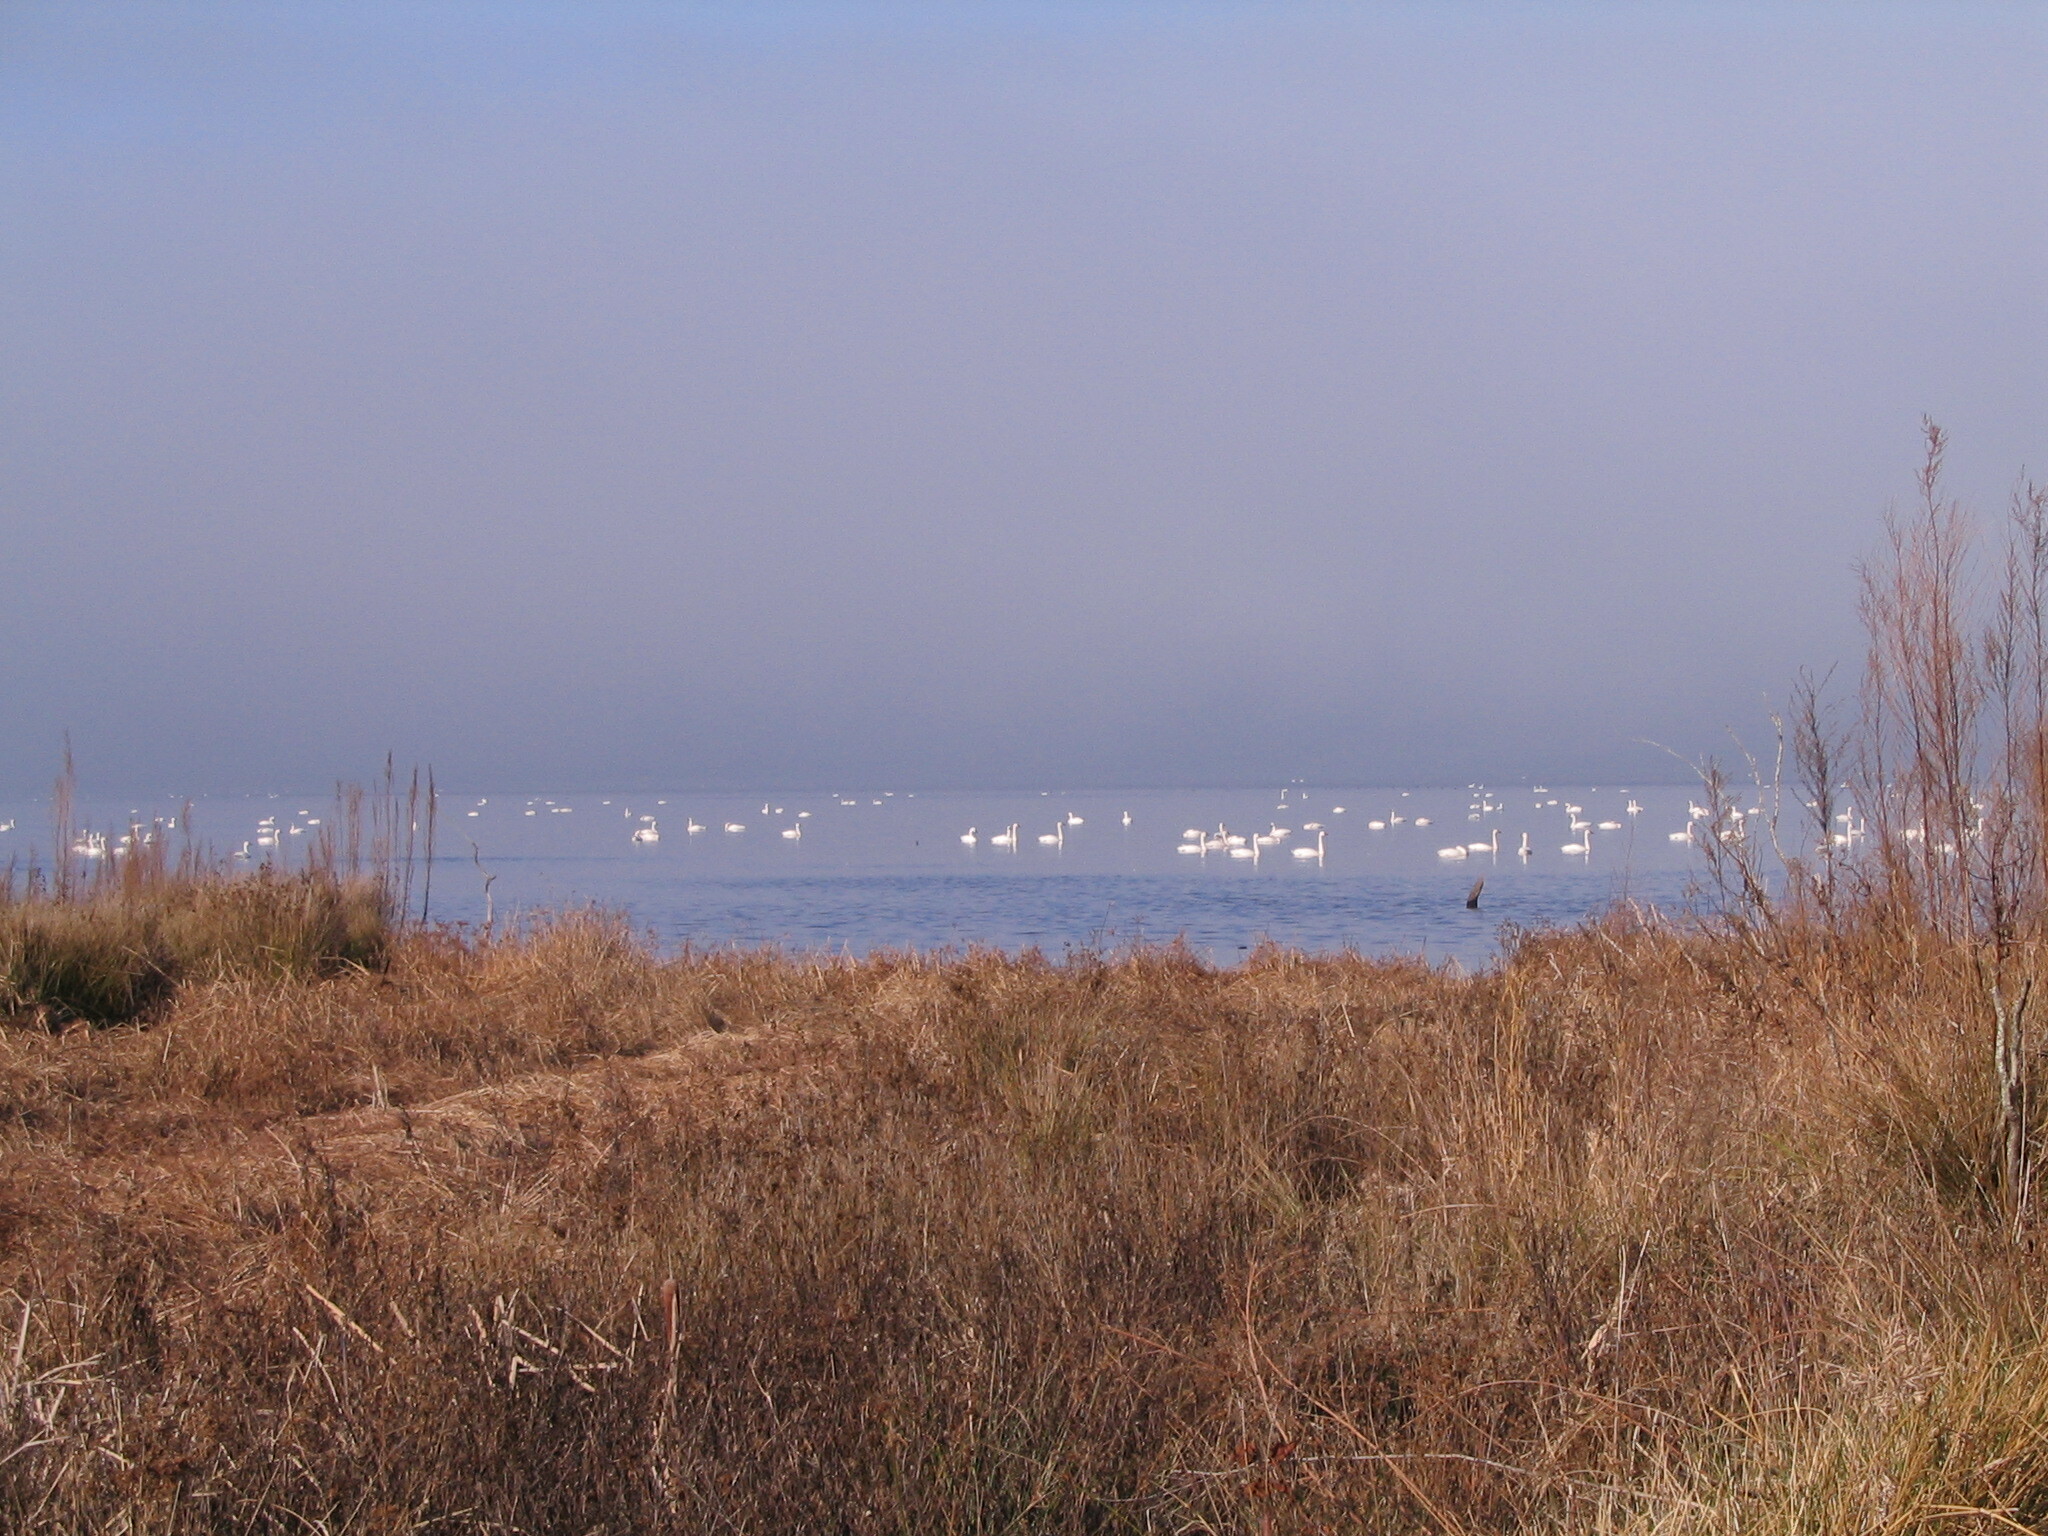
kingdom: Animalia
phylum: Chordata
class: Aves
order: Anseriformes
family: Anatidae
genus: Cygnus
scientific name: Cygnus columbianus
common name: Tundra swan
